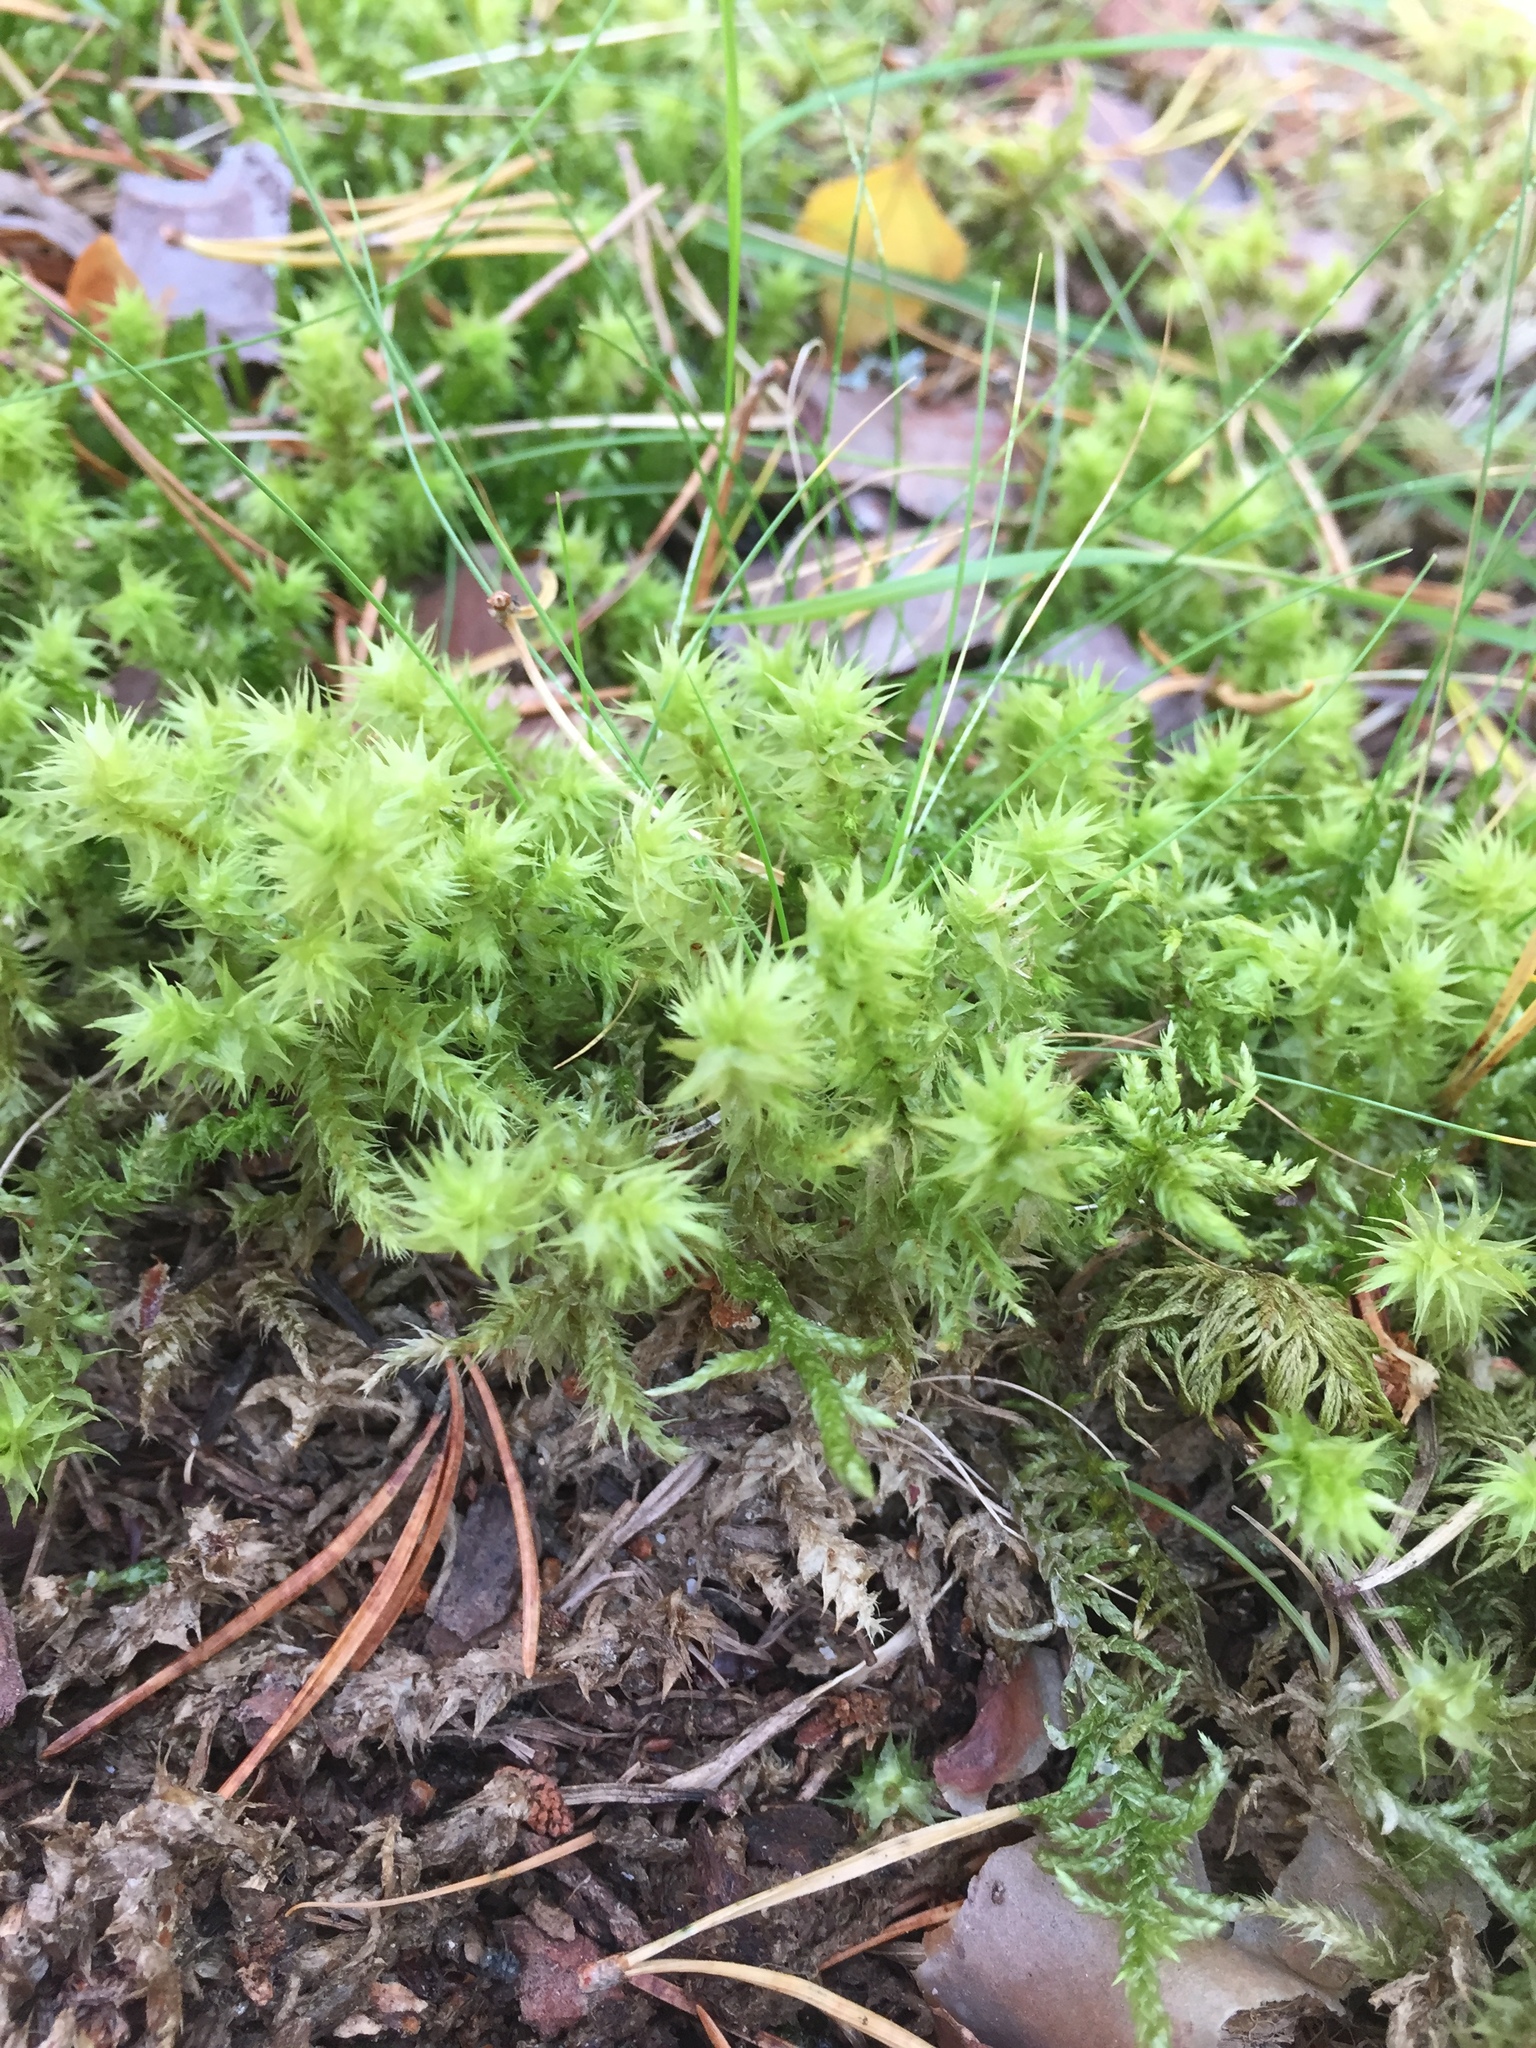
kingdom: Plantae
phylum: Bryophyta
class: Bryopsida
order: Hypnales
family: Hylocomiaceae
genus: Hylocomiadelphus
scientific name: Hylocomiadelphus triquetrus
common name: Rough goose neck moss
